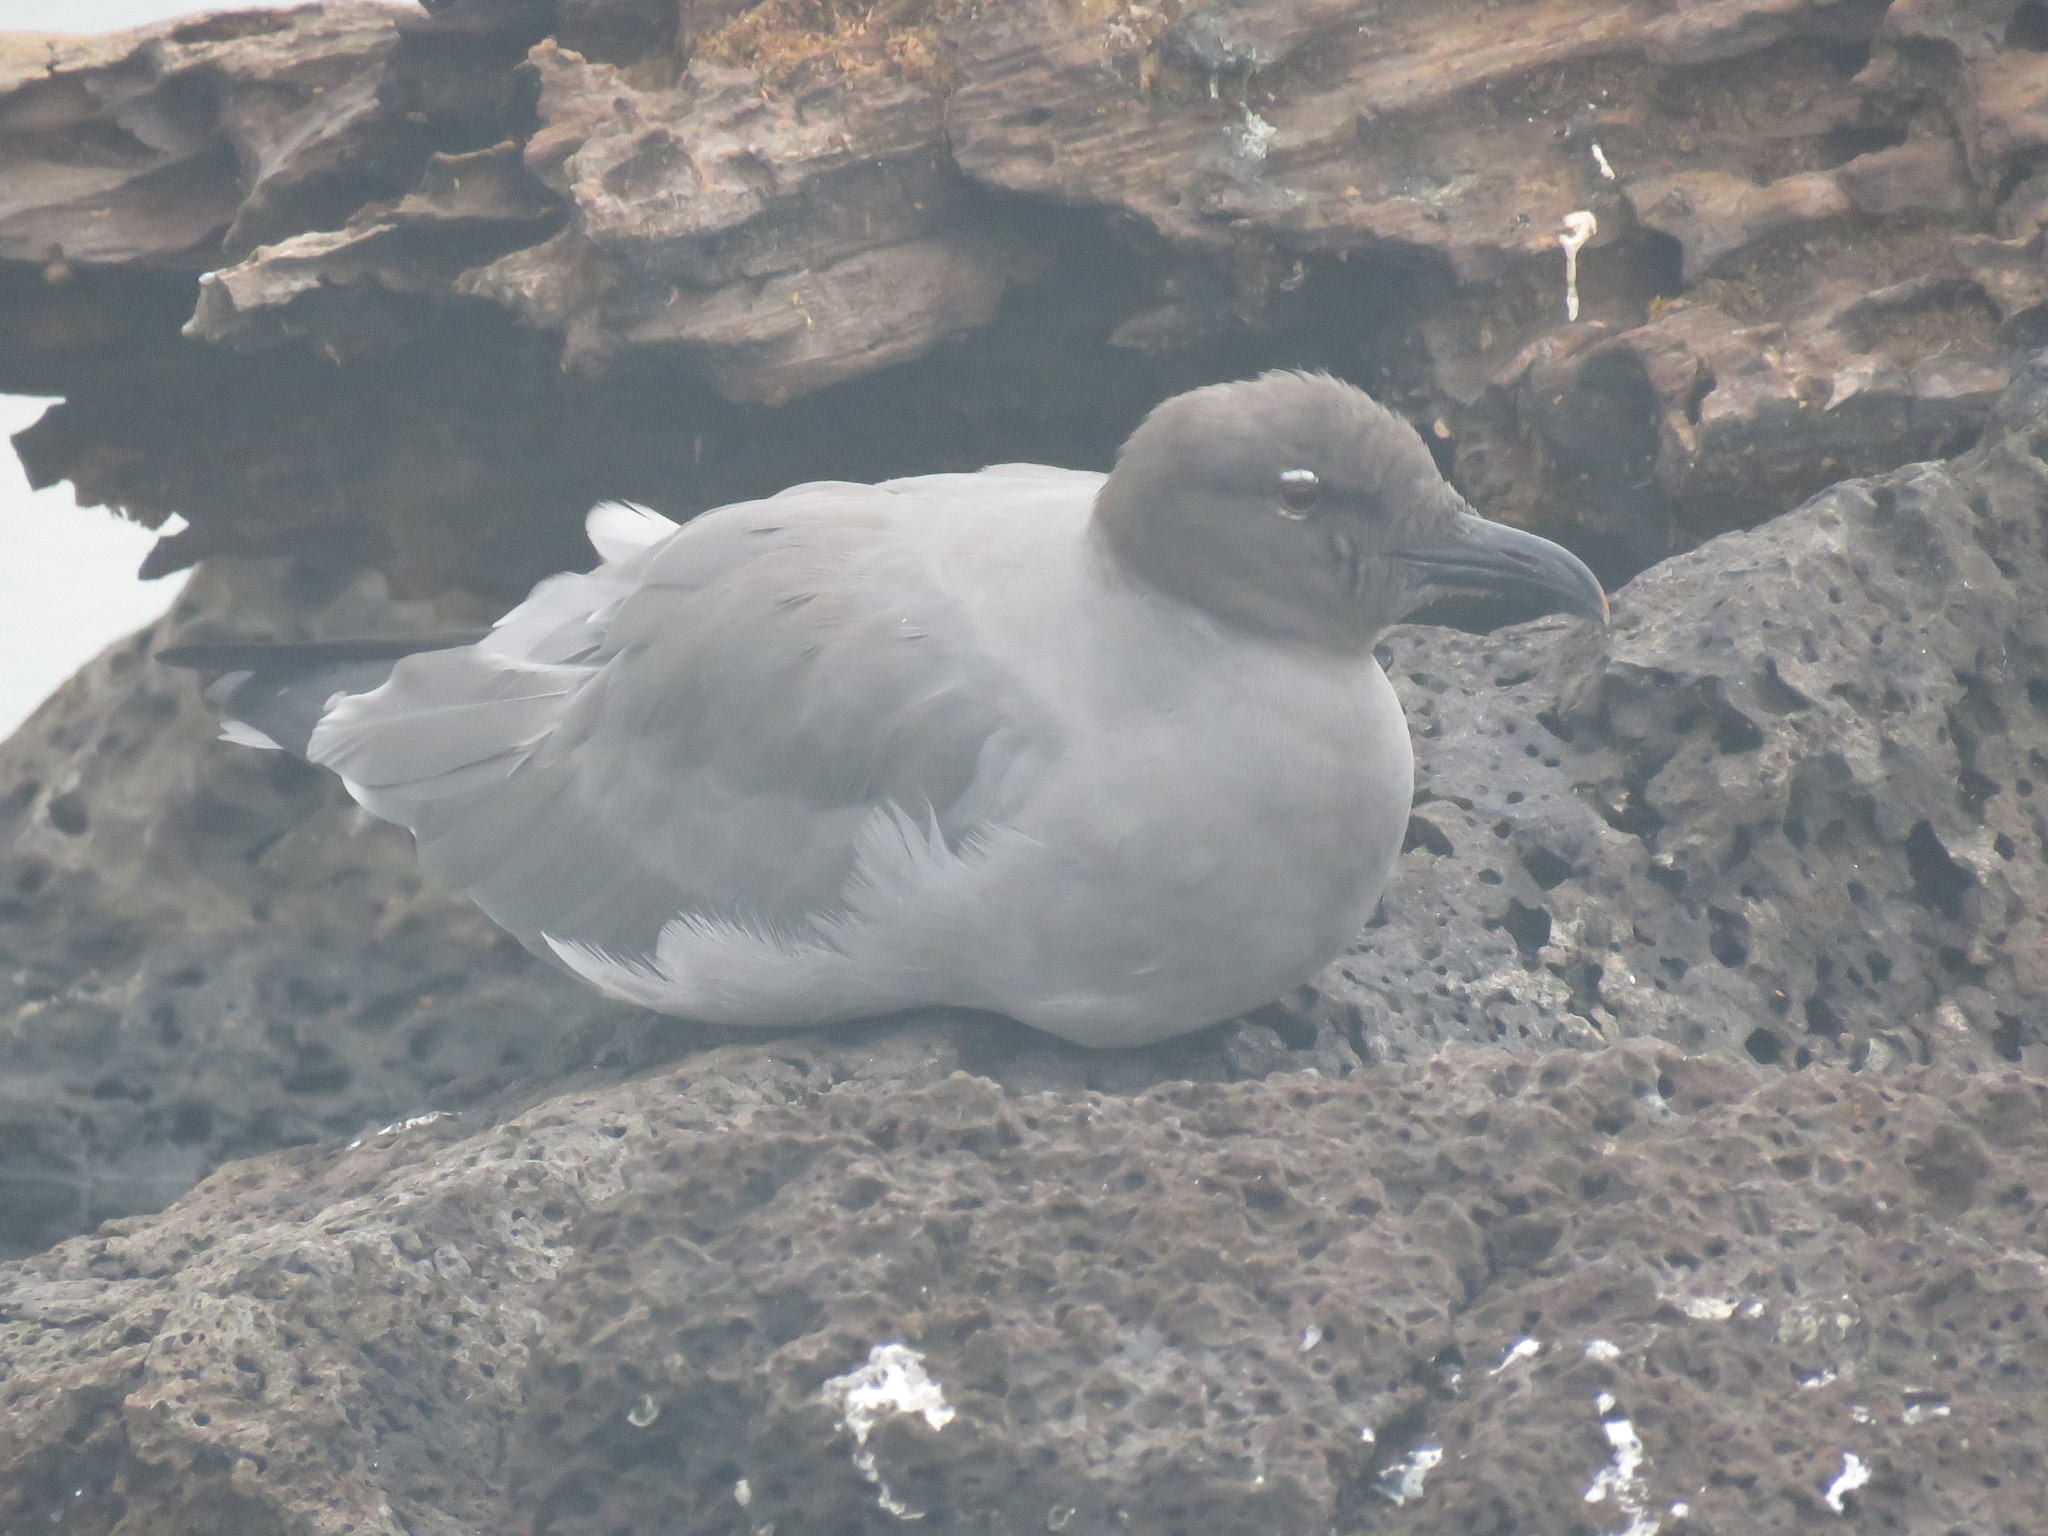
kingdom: Animalia
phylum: Chordata
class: Aves
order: Charadriiformes
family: Laridae
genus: Leucophaeus
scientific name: Leucophaeus fuliginosus
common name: Lava gull
